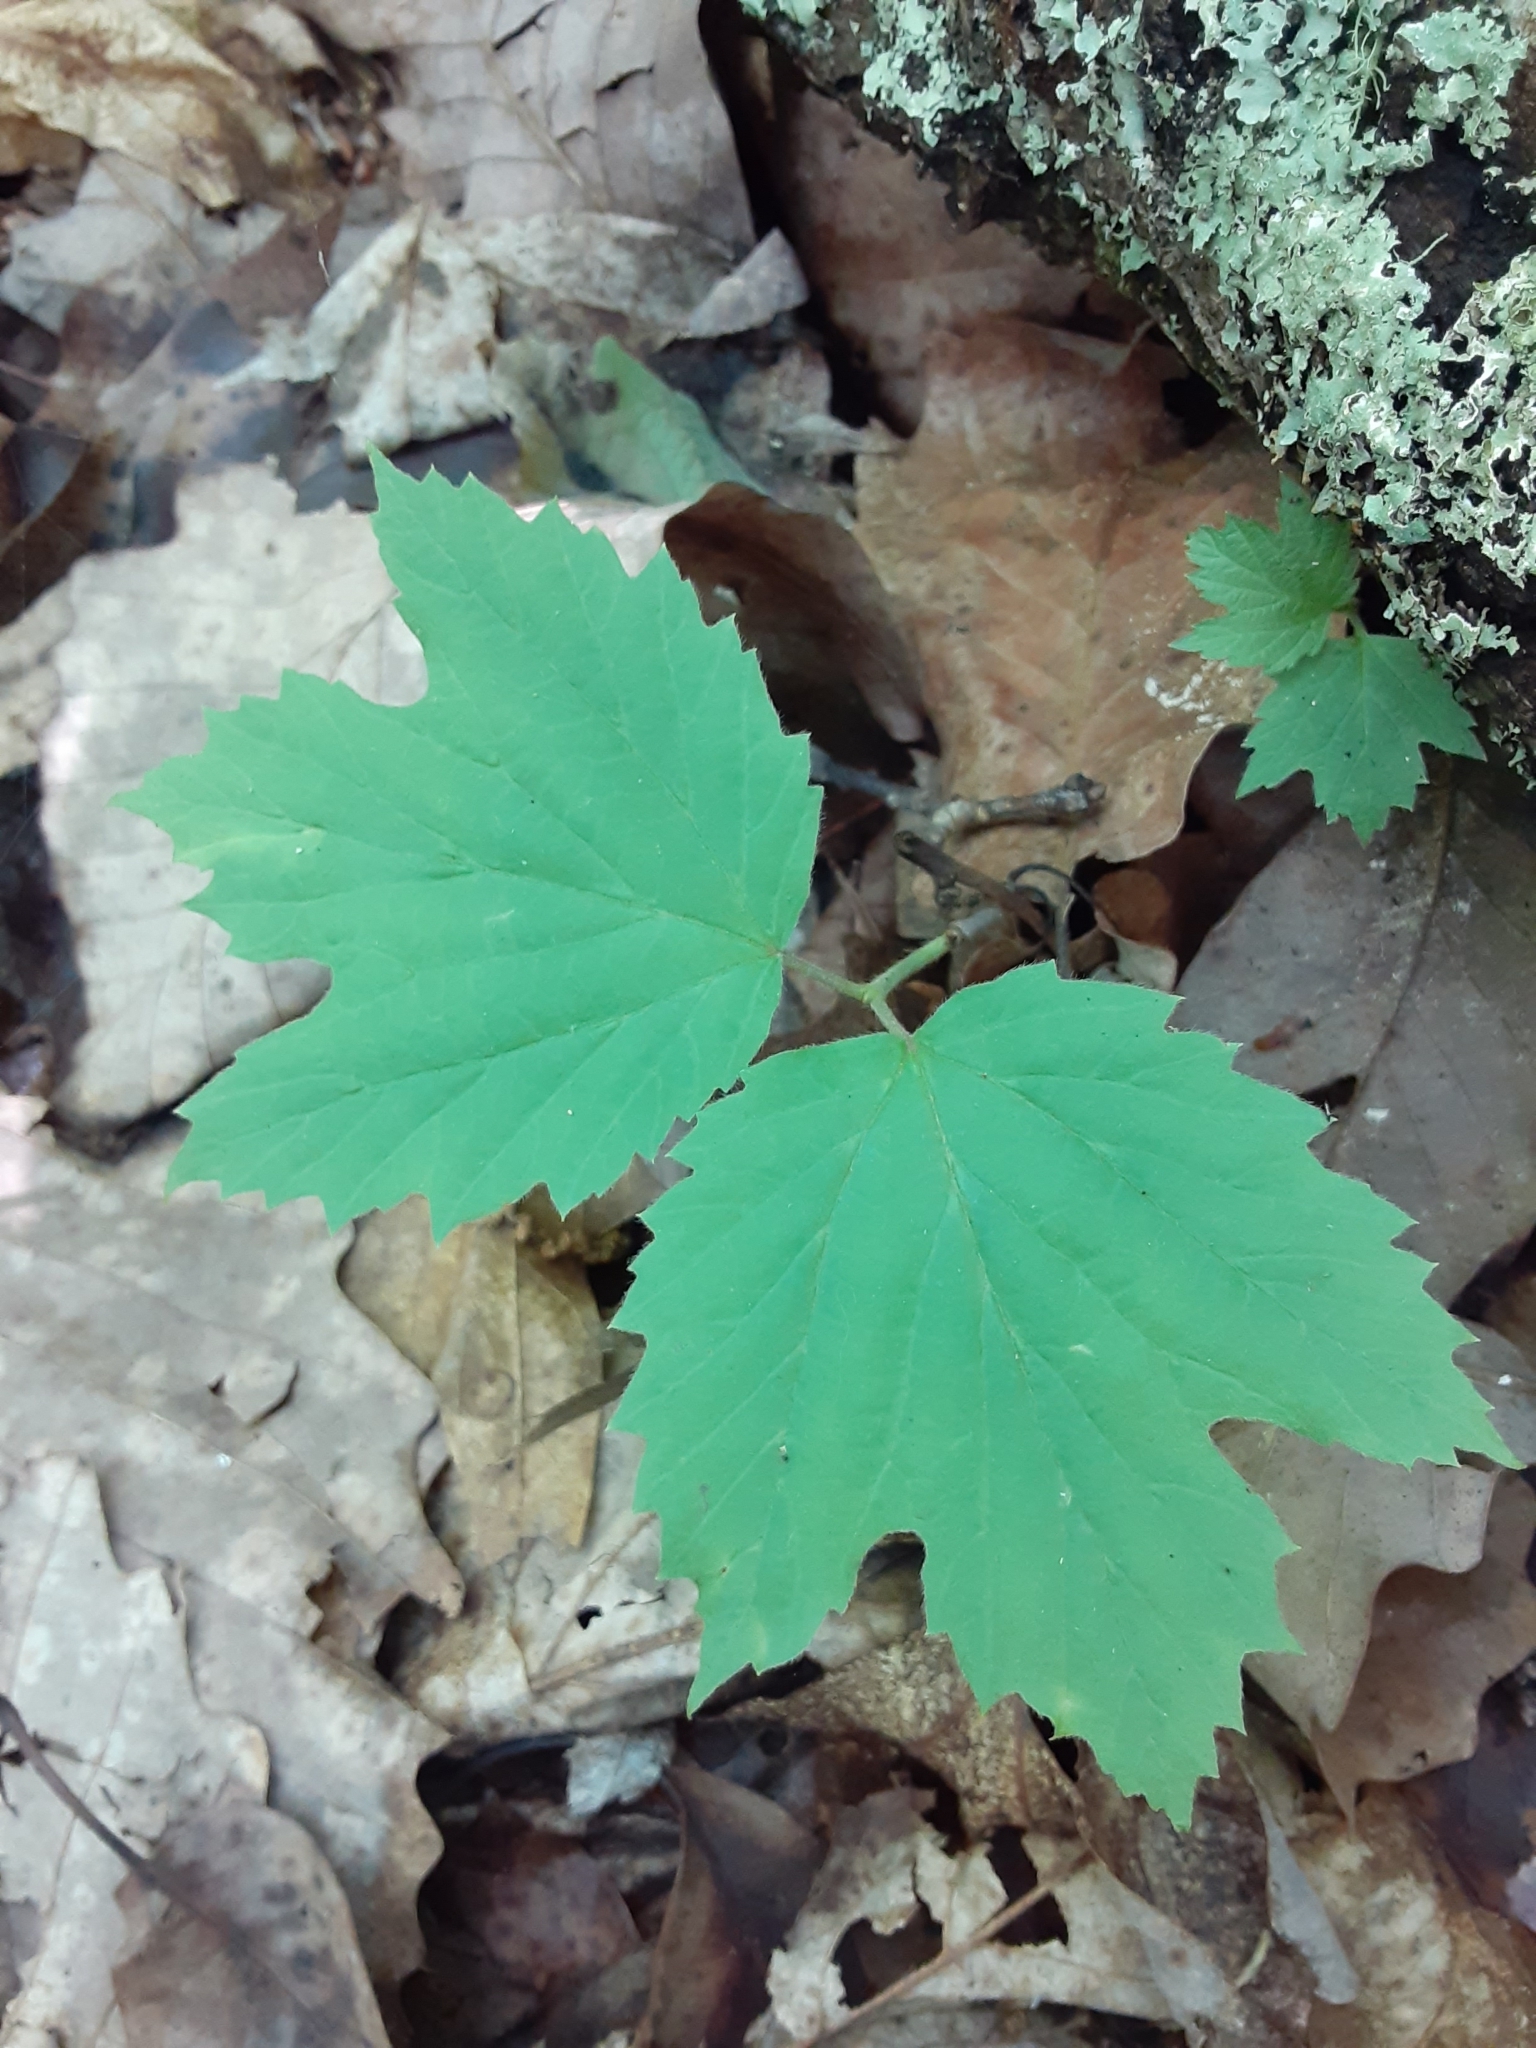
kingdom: Plantae
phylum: Tracheophyta
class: Magnoliopsida
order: Dipsacales
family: Viburnaceae
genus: Viburnum
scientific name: Viburnum acerifolium
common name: Dockmackie
